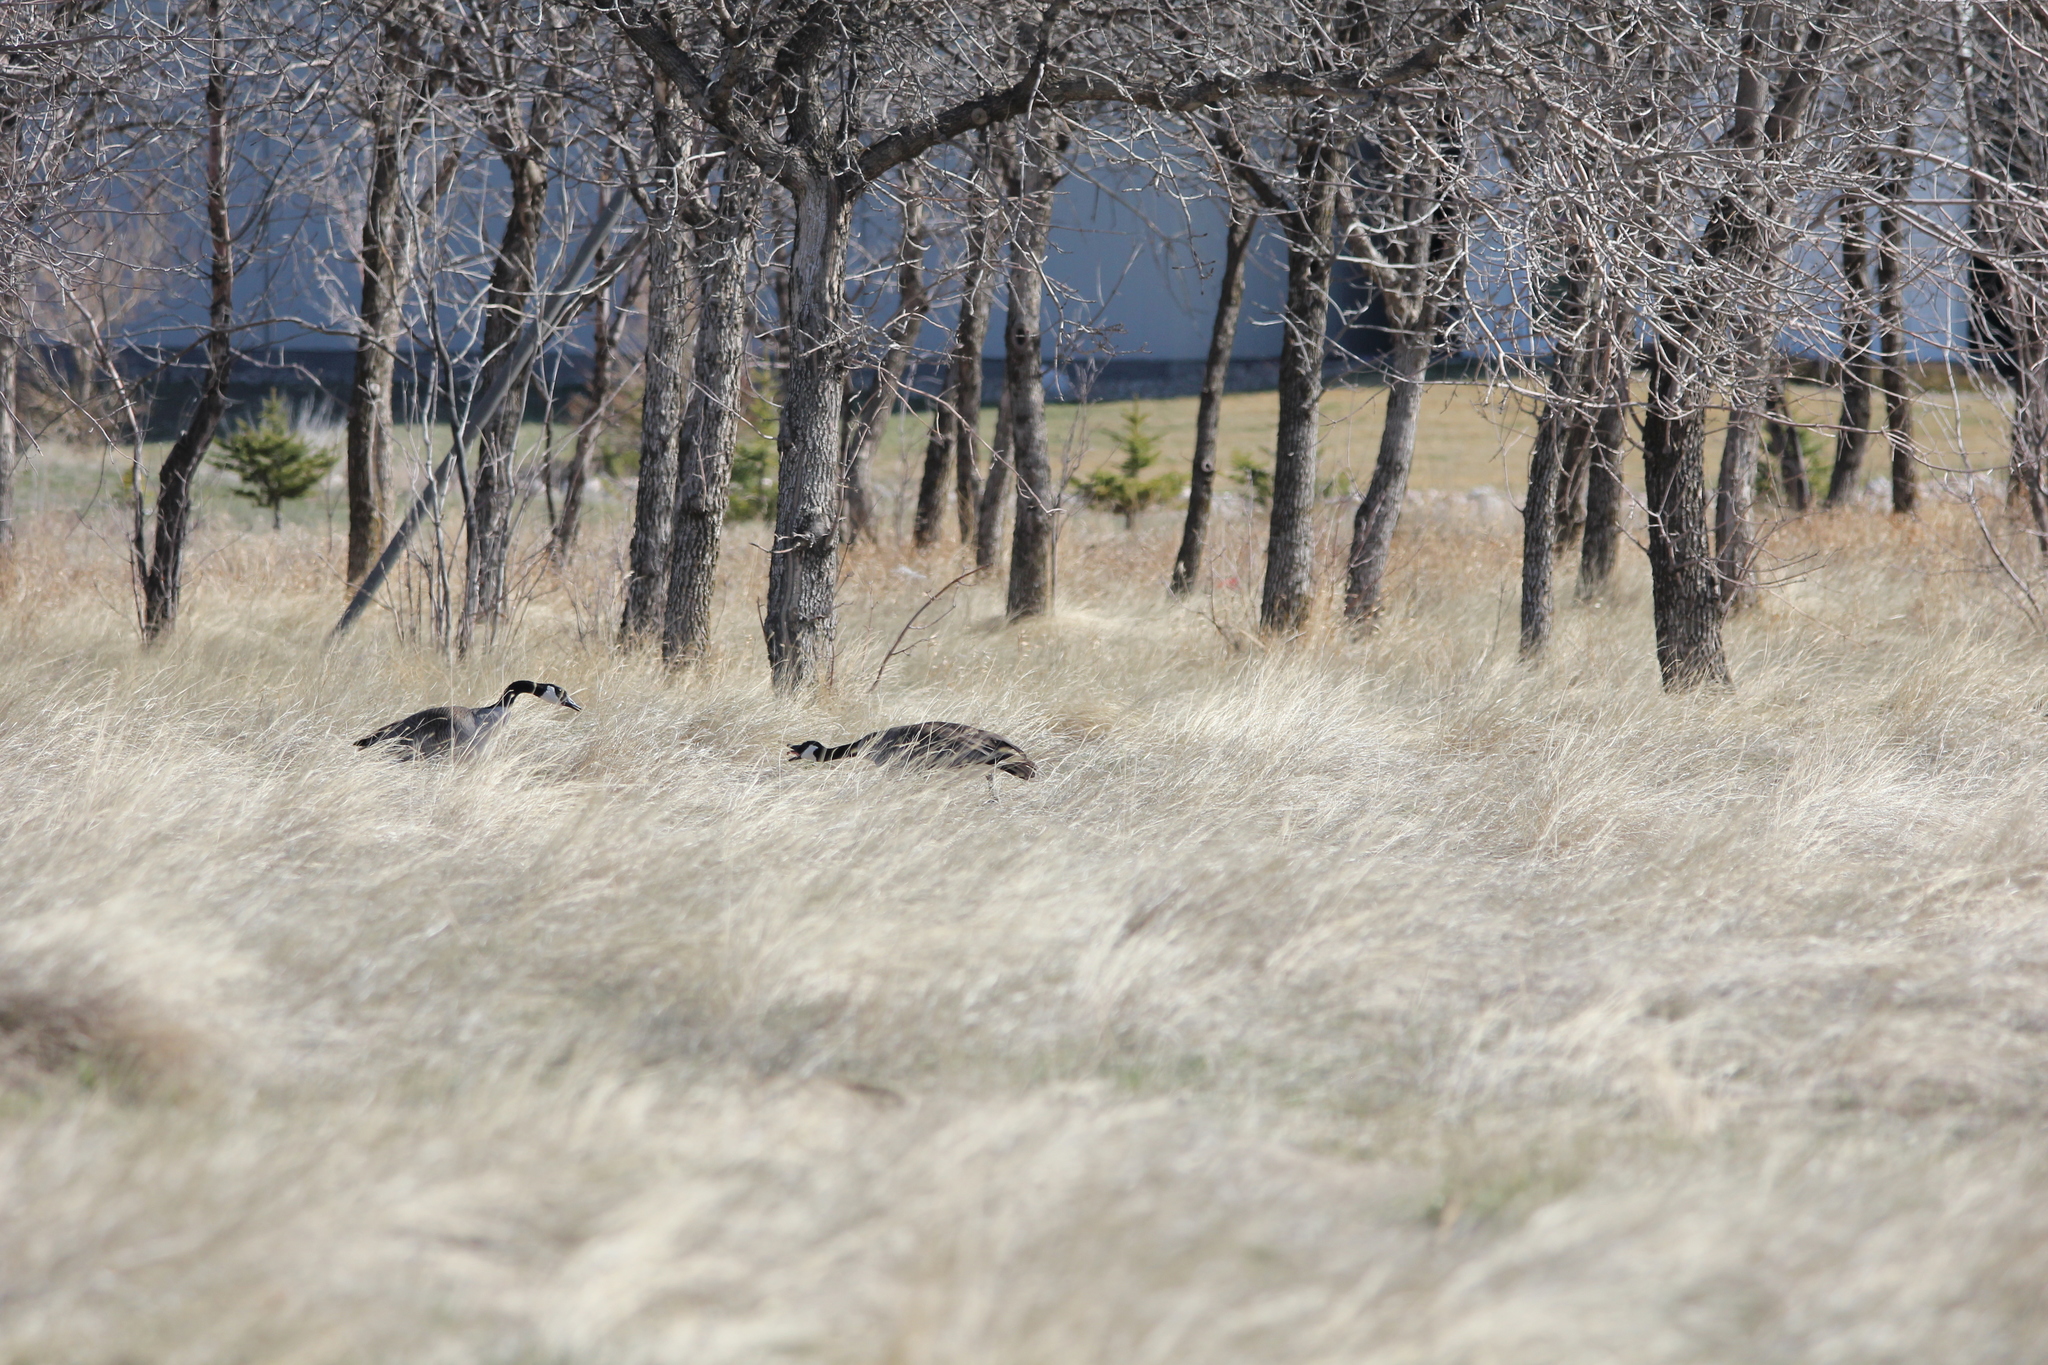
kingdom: Animalia
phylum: Chordata
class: Aves
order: Anseriformes
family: Anatidae
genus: Branta
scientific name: Branta canadensis
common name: Canada goose
